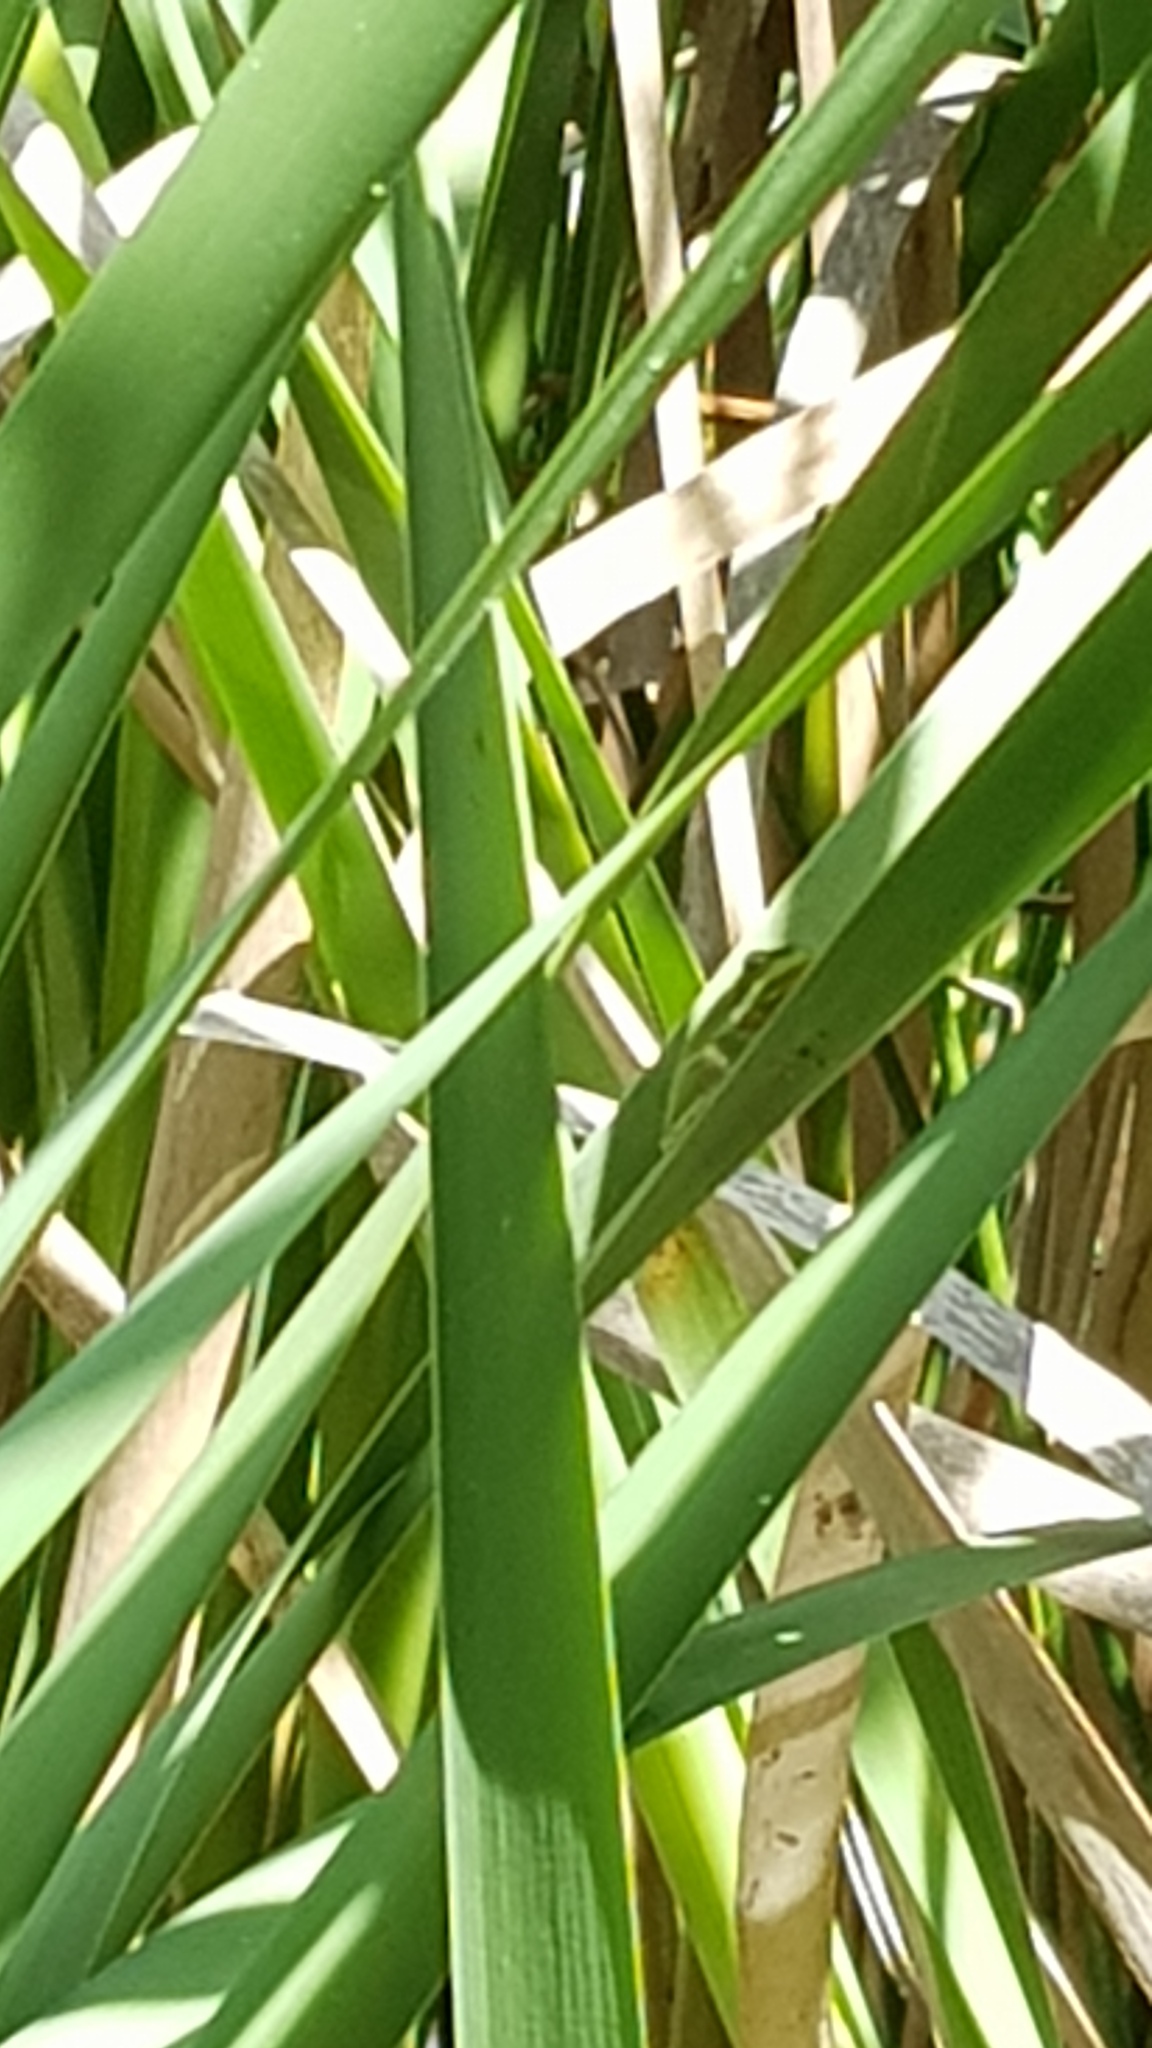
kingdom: Animalia
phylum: Chordata
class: Amphibia
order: Anura
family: Pelodryadidae
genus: Litoria
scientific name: Litoria fallax
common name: Eastern dwarf treefrog
